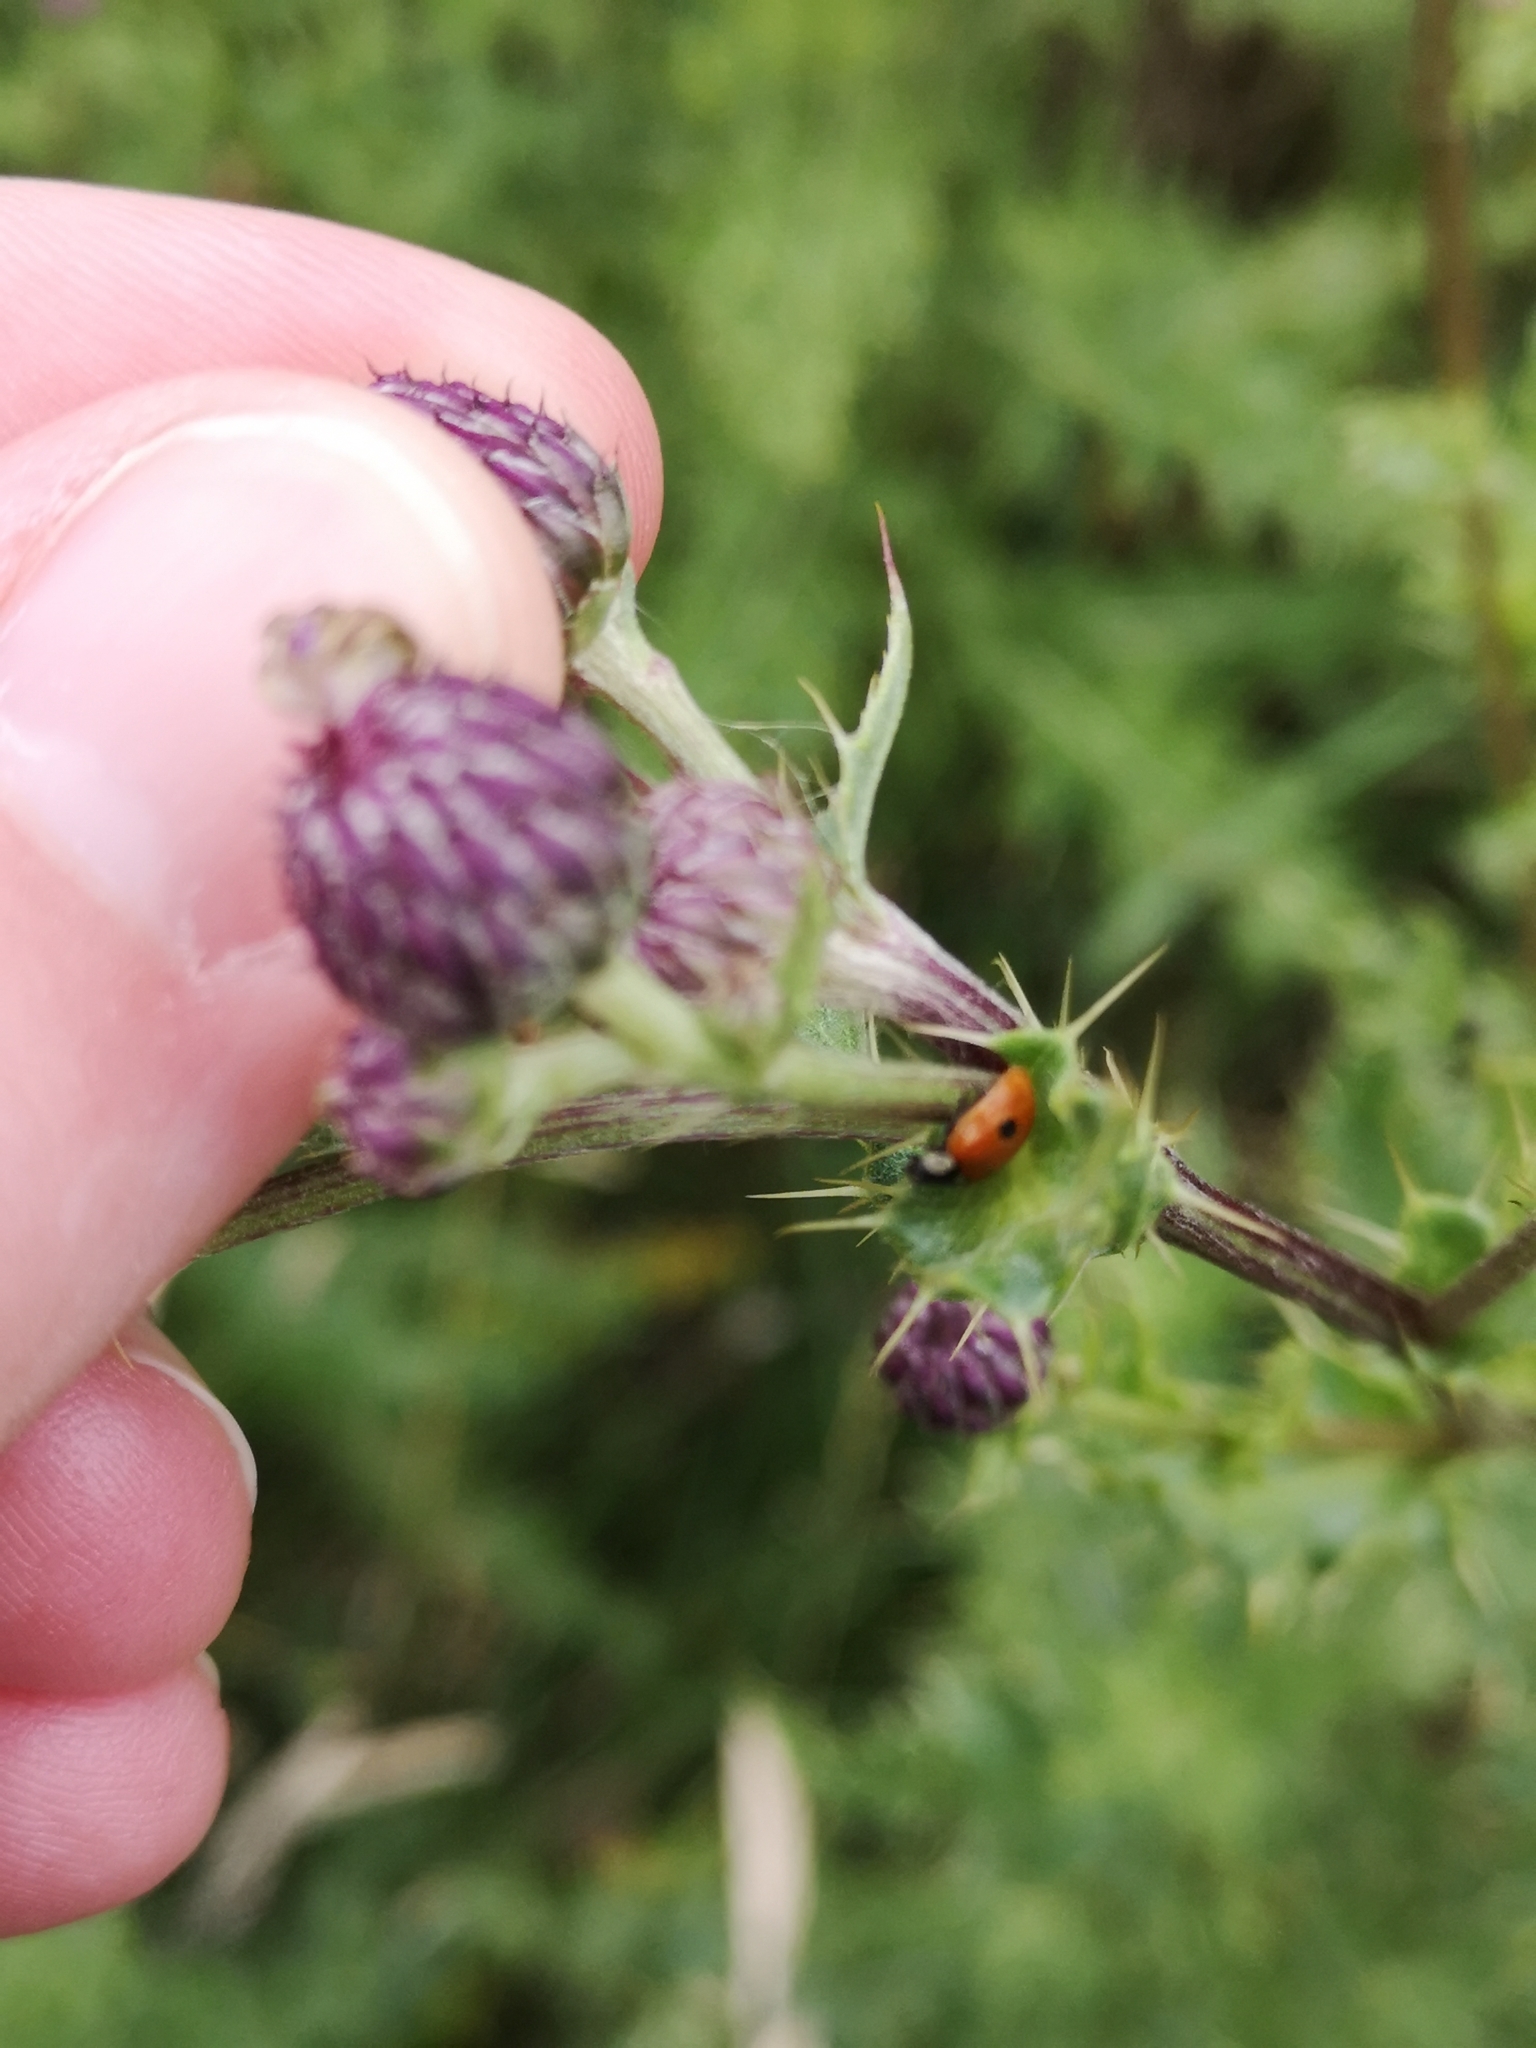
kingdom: Animalia
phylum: Arthropoda
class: Insecta
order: Coleoptera
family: Coccinellidae
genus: Adalia
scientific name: Adalia bipunctata
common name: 2-spot ladybird
